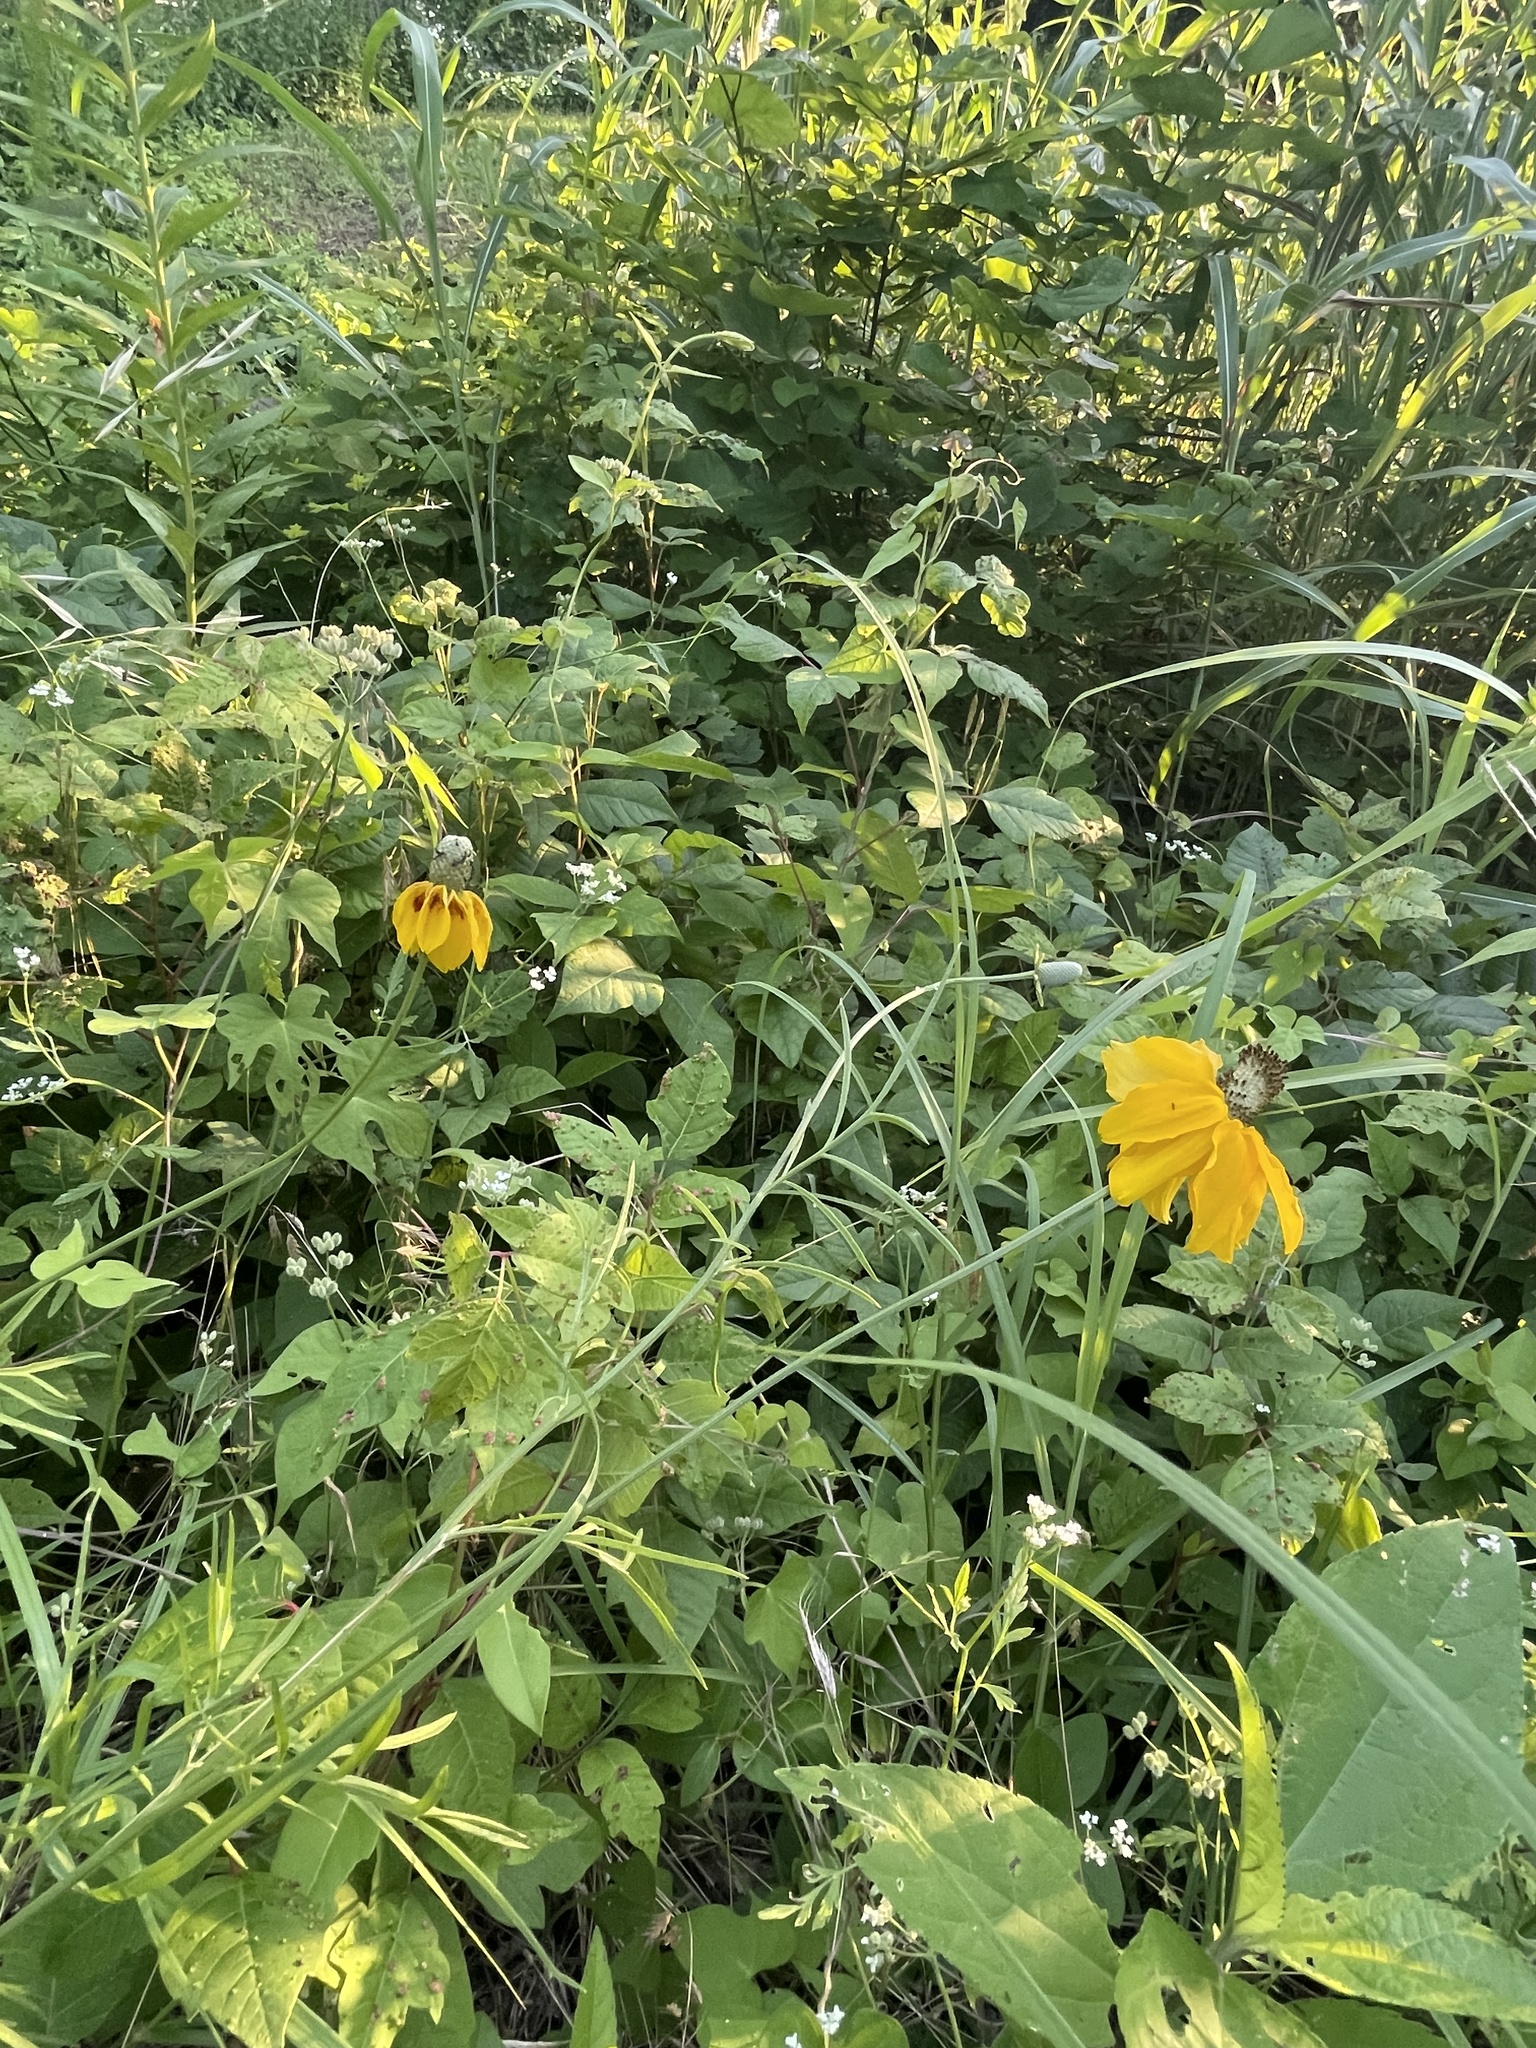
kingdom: Plantae
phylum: Tracheophyta
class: Magnoliopsida
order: Asterales
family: Asteraceae
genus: Ratibida
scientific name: Ratibida columnifera
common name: Prairie coneflower
